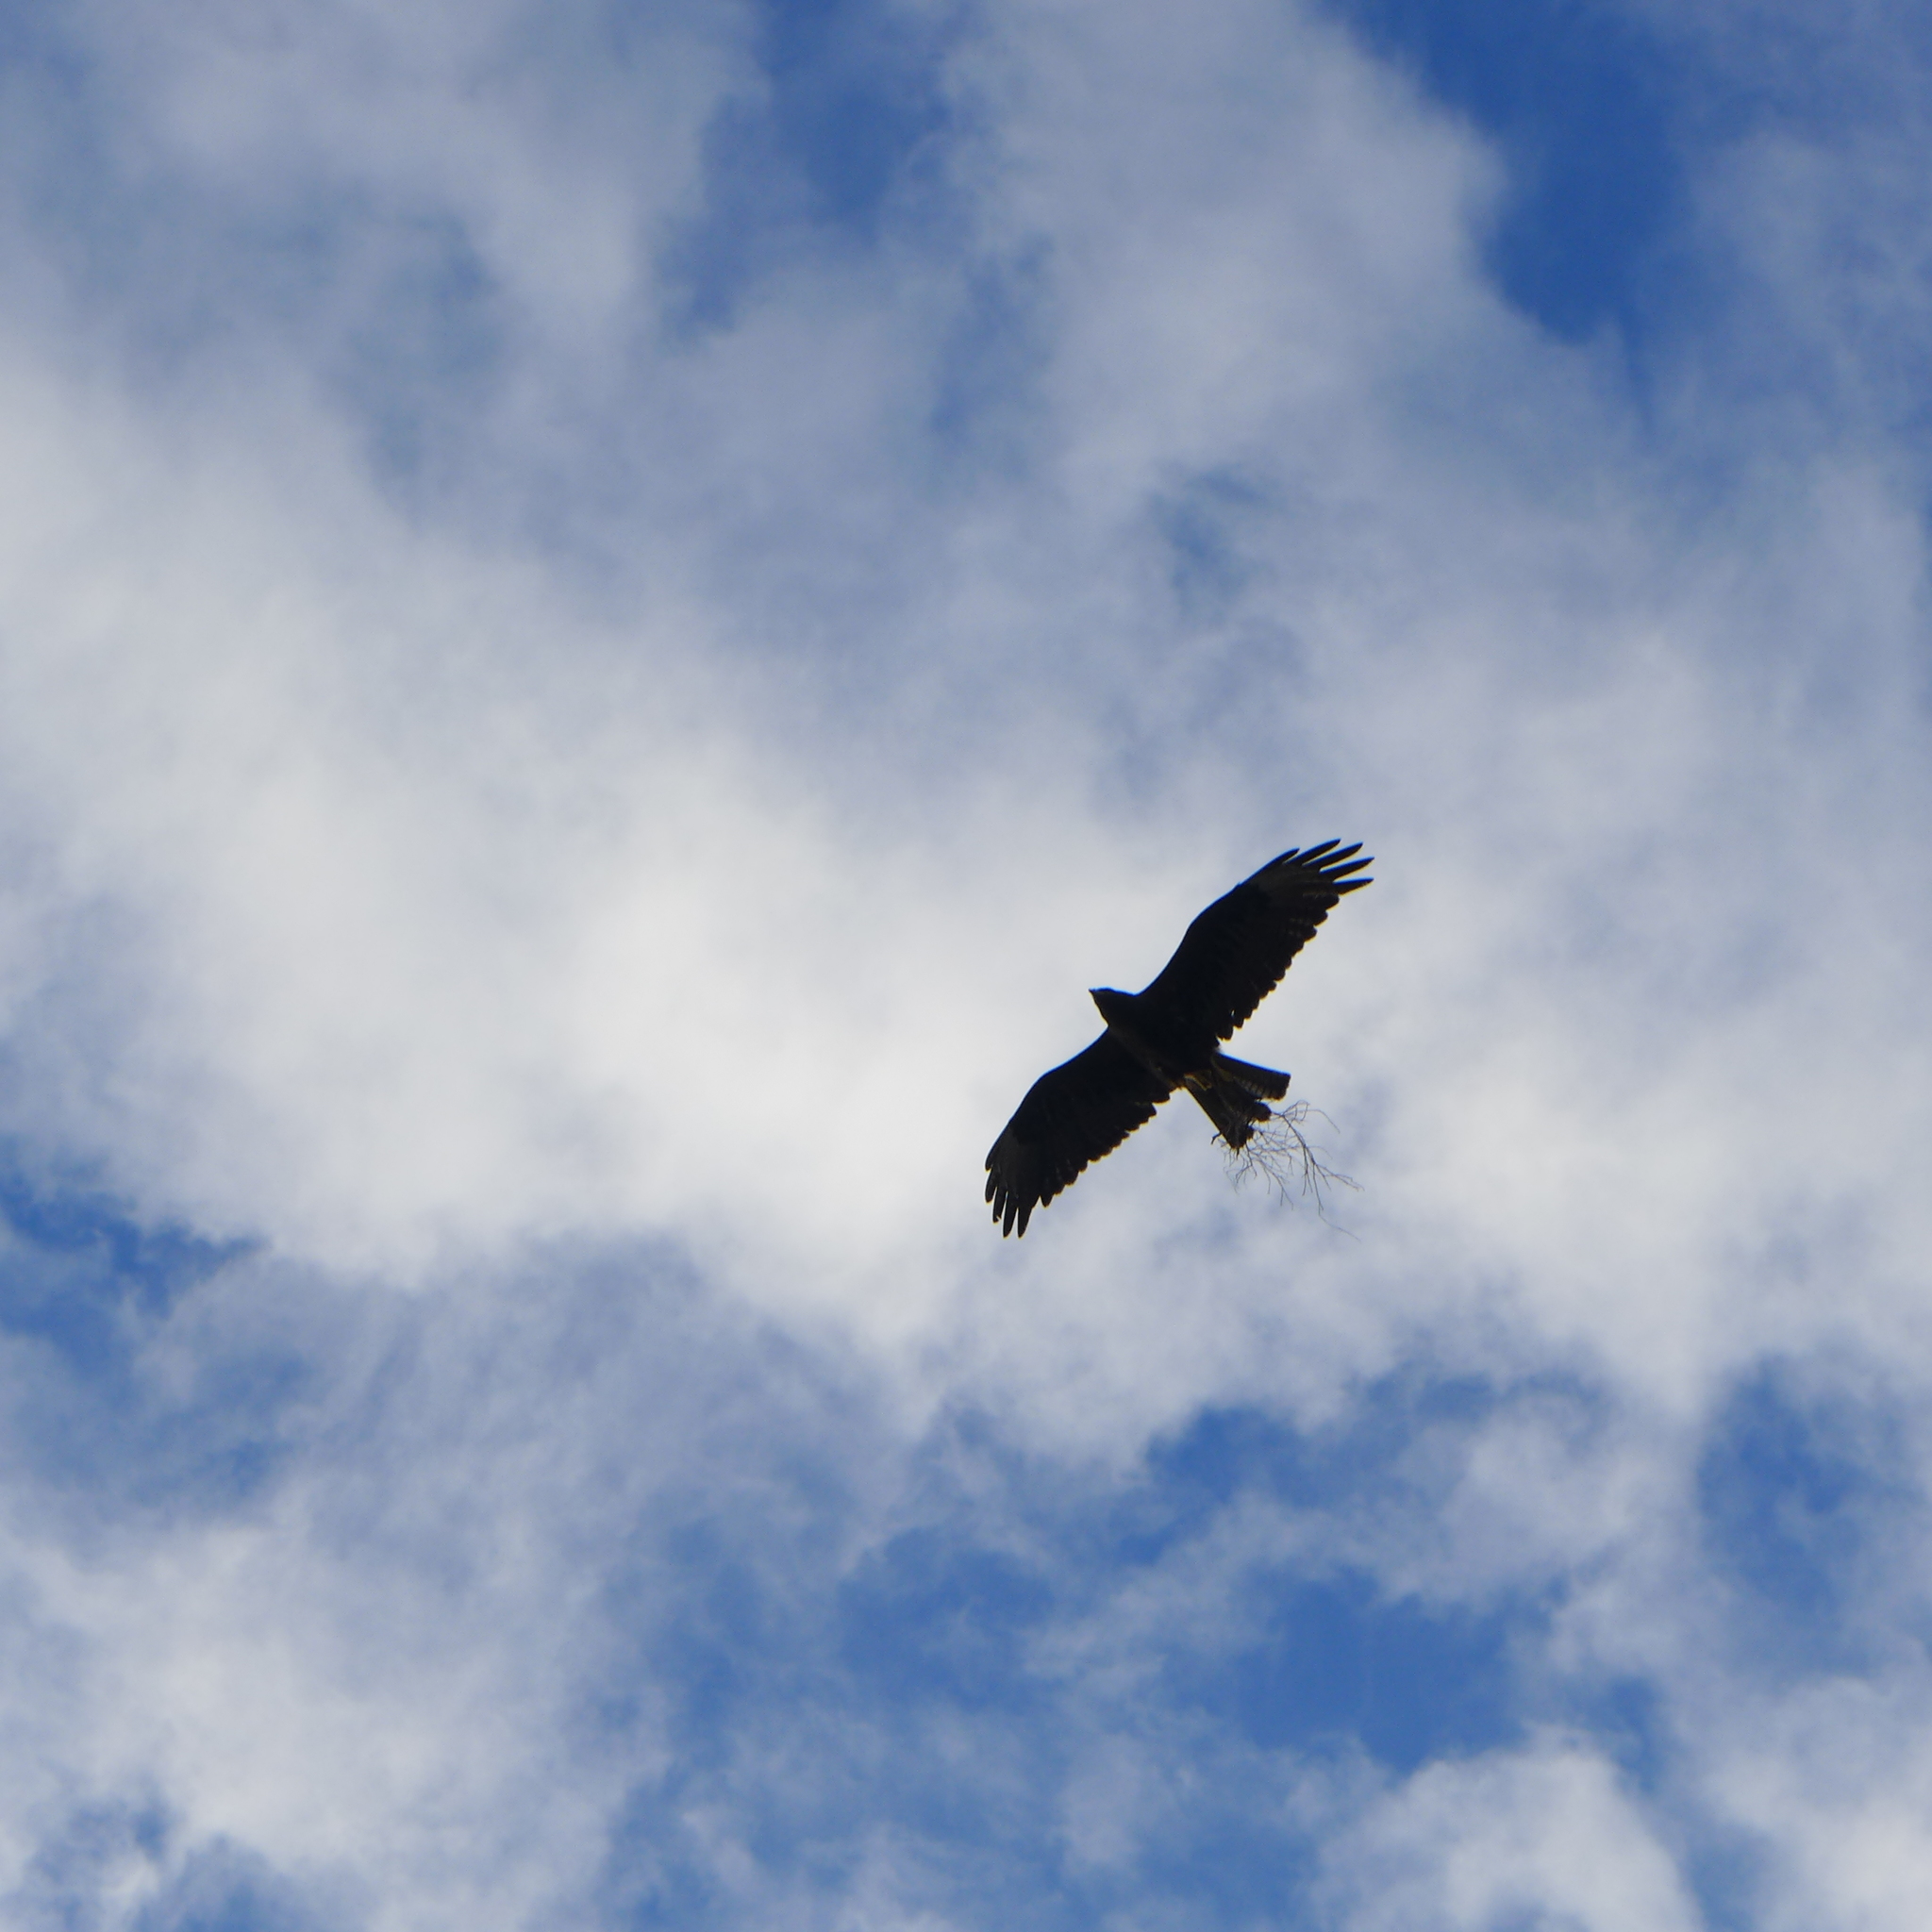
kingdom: Animalia
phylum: Chordata
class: Aves
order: Accipitriformes
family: Accipitridae
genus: Buteo
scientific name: Buteo galapagoensis
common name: Galapagos hawk
